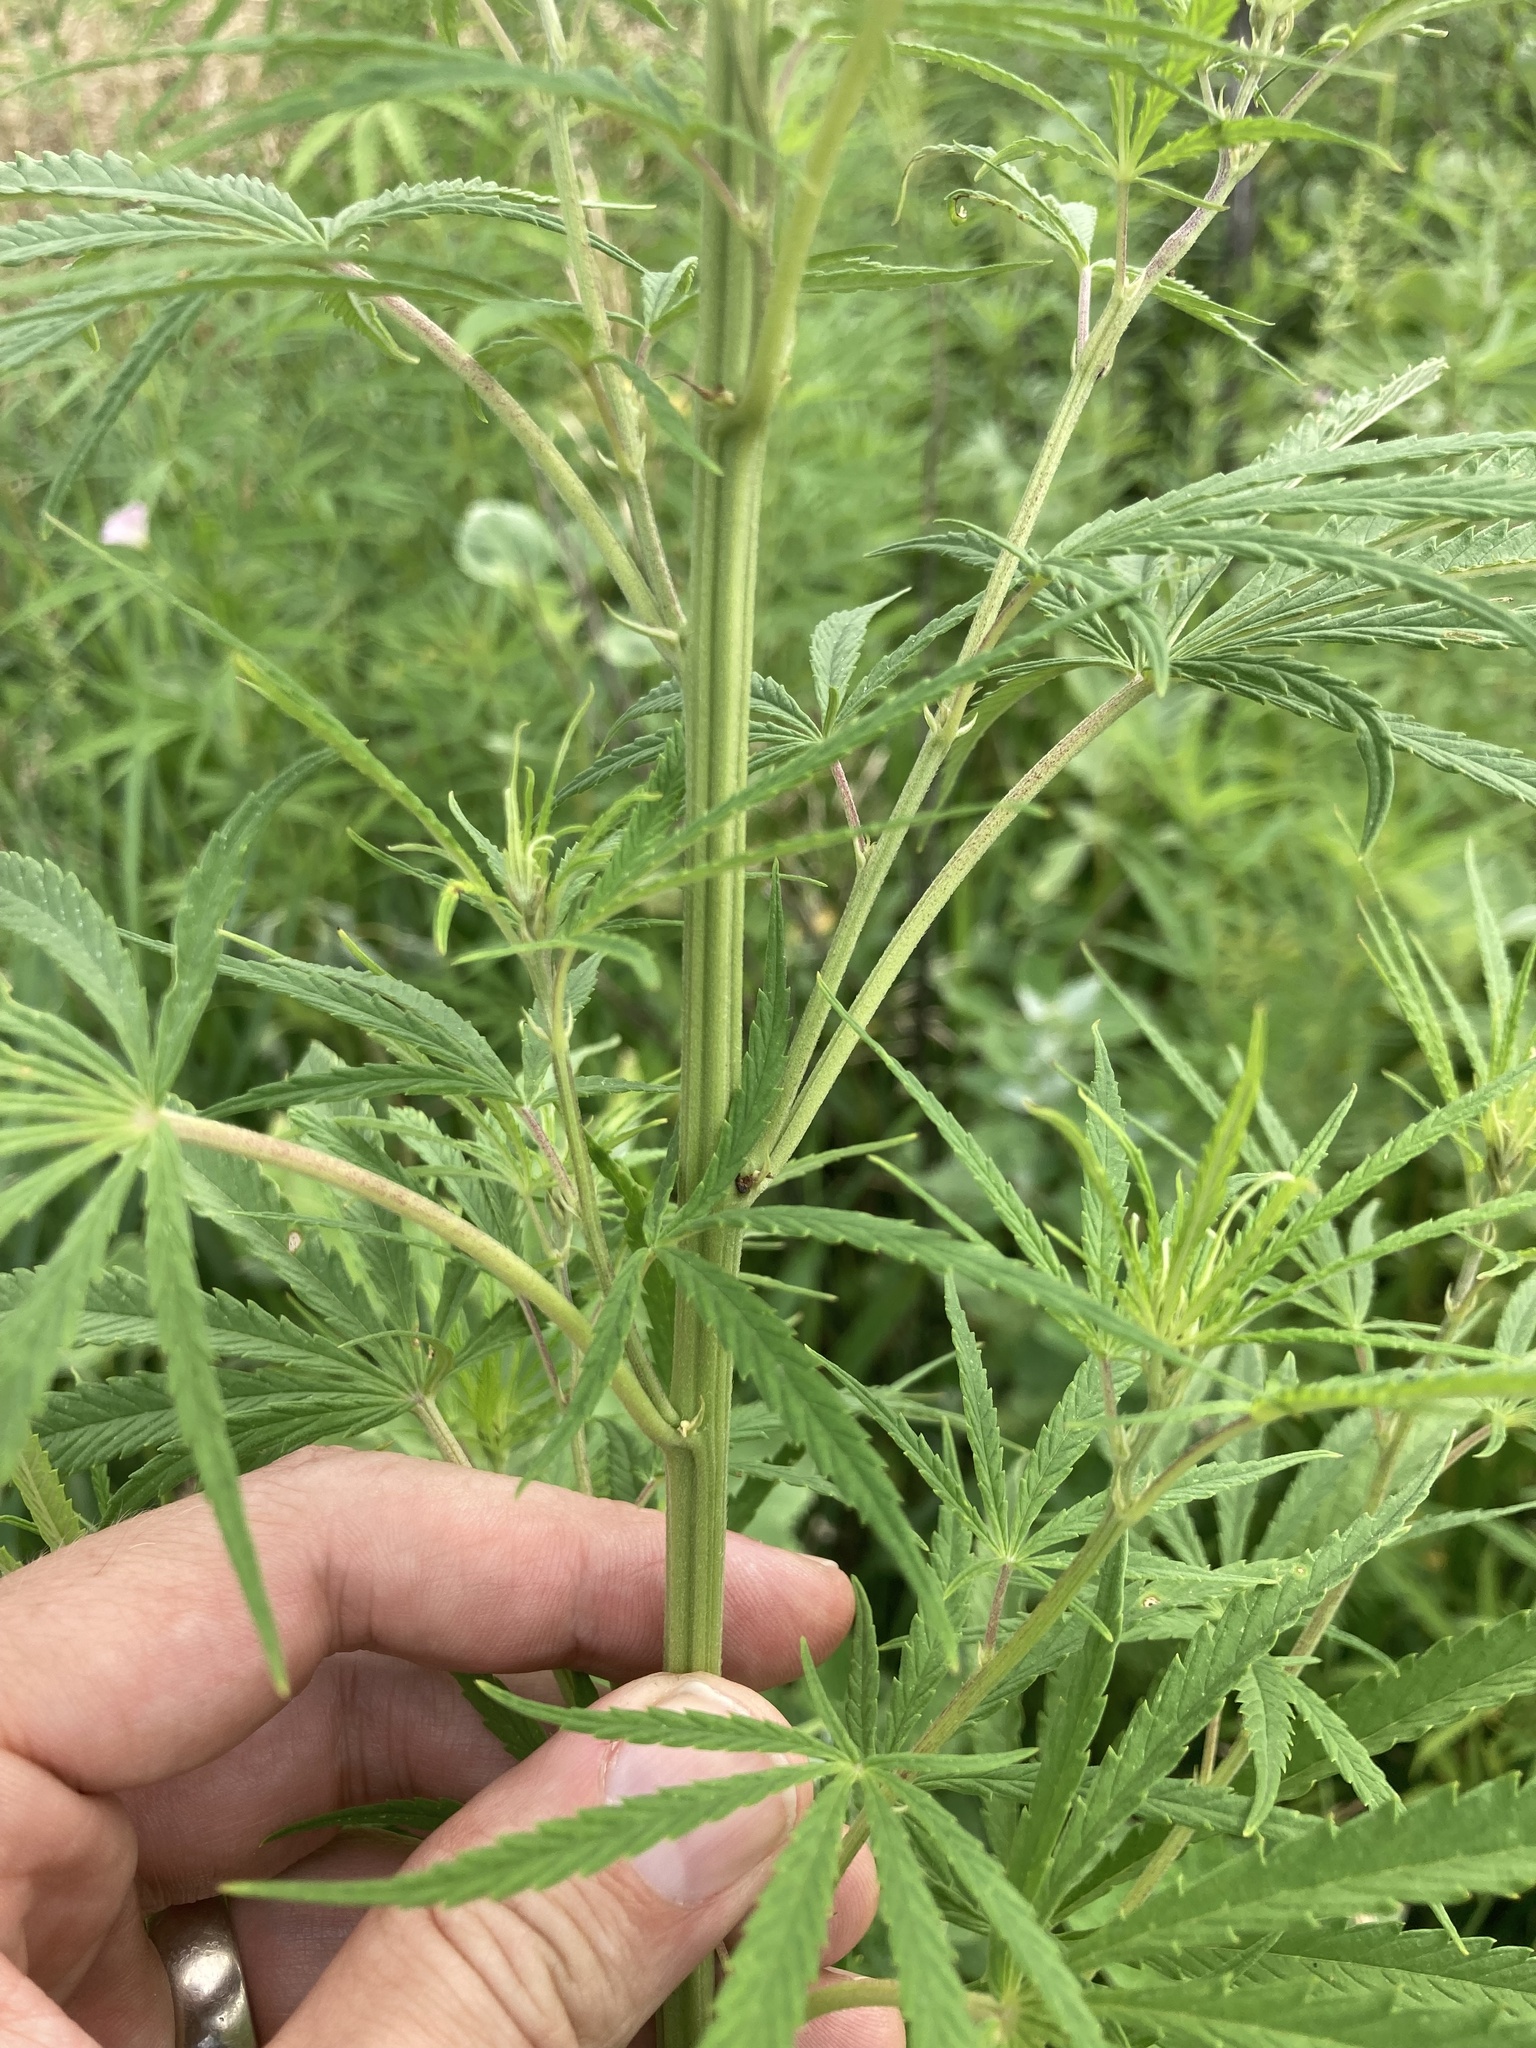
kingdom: Plantae
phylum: Tracheophyta
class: Magnoliopsida
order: Rosales
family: Cannabaceae
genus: Cannabis
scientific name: Cannabis sativa
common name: Hemp
